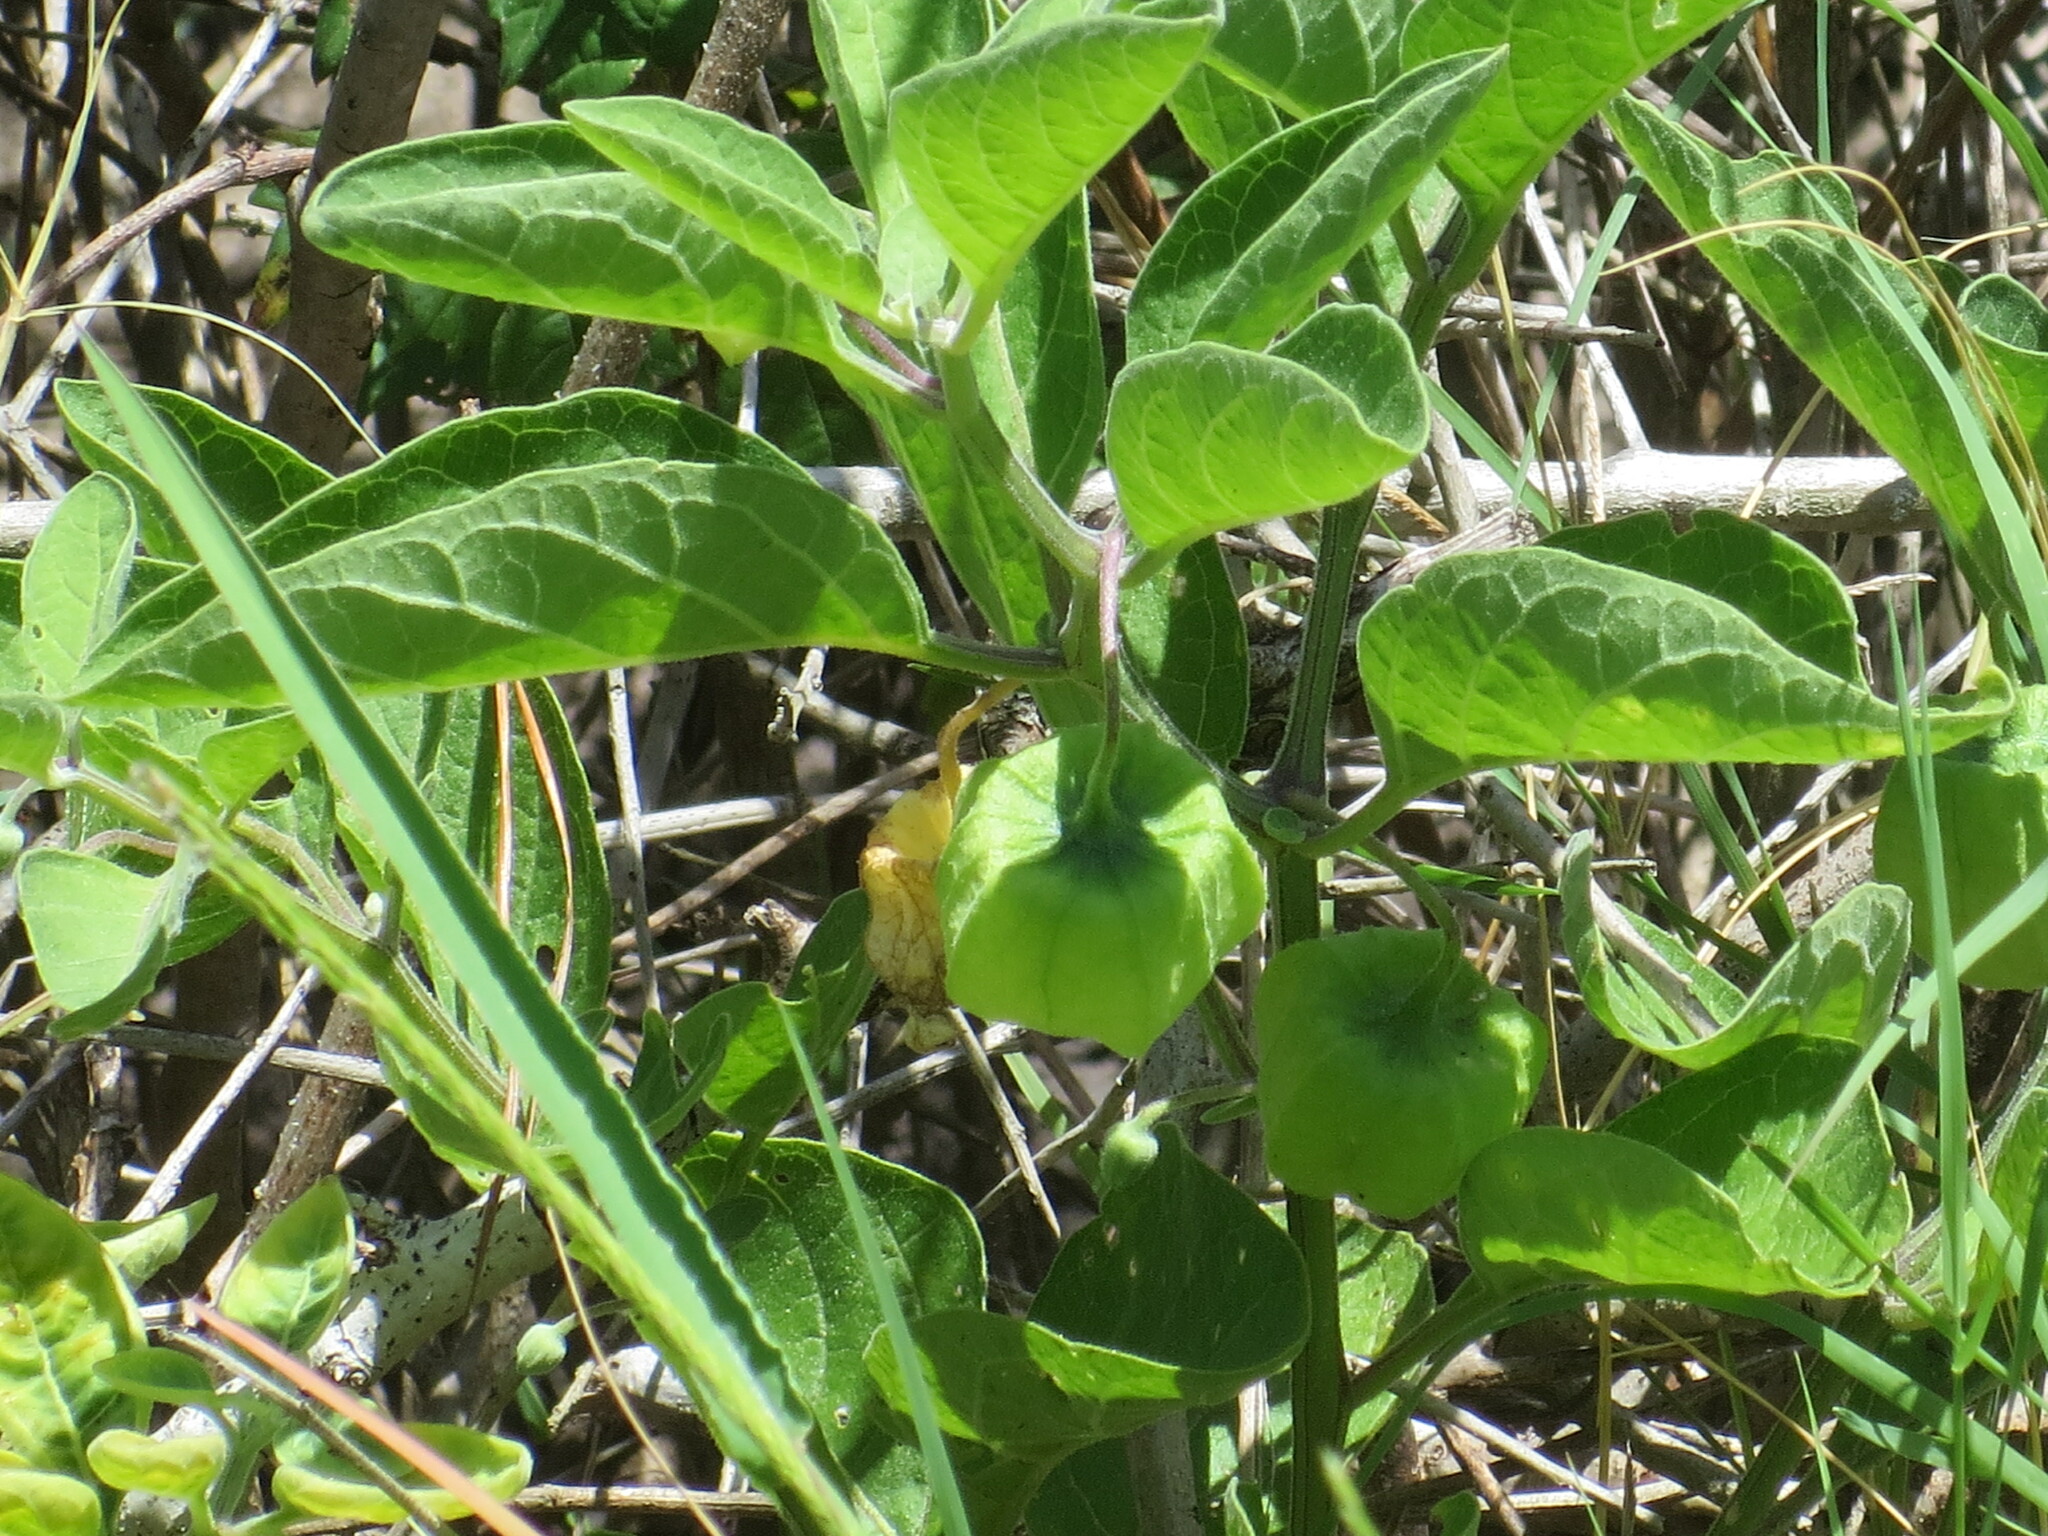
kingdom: Plantae
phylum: Tracheophyta
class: Magnoliopsida
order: Solanales
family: Solanaceae
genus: Physalis
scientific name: Physalis walteri
